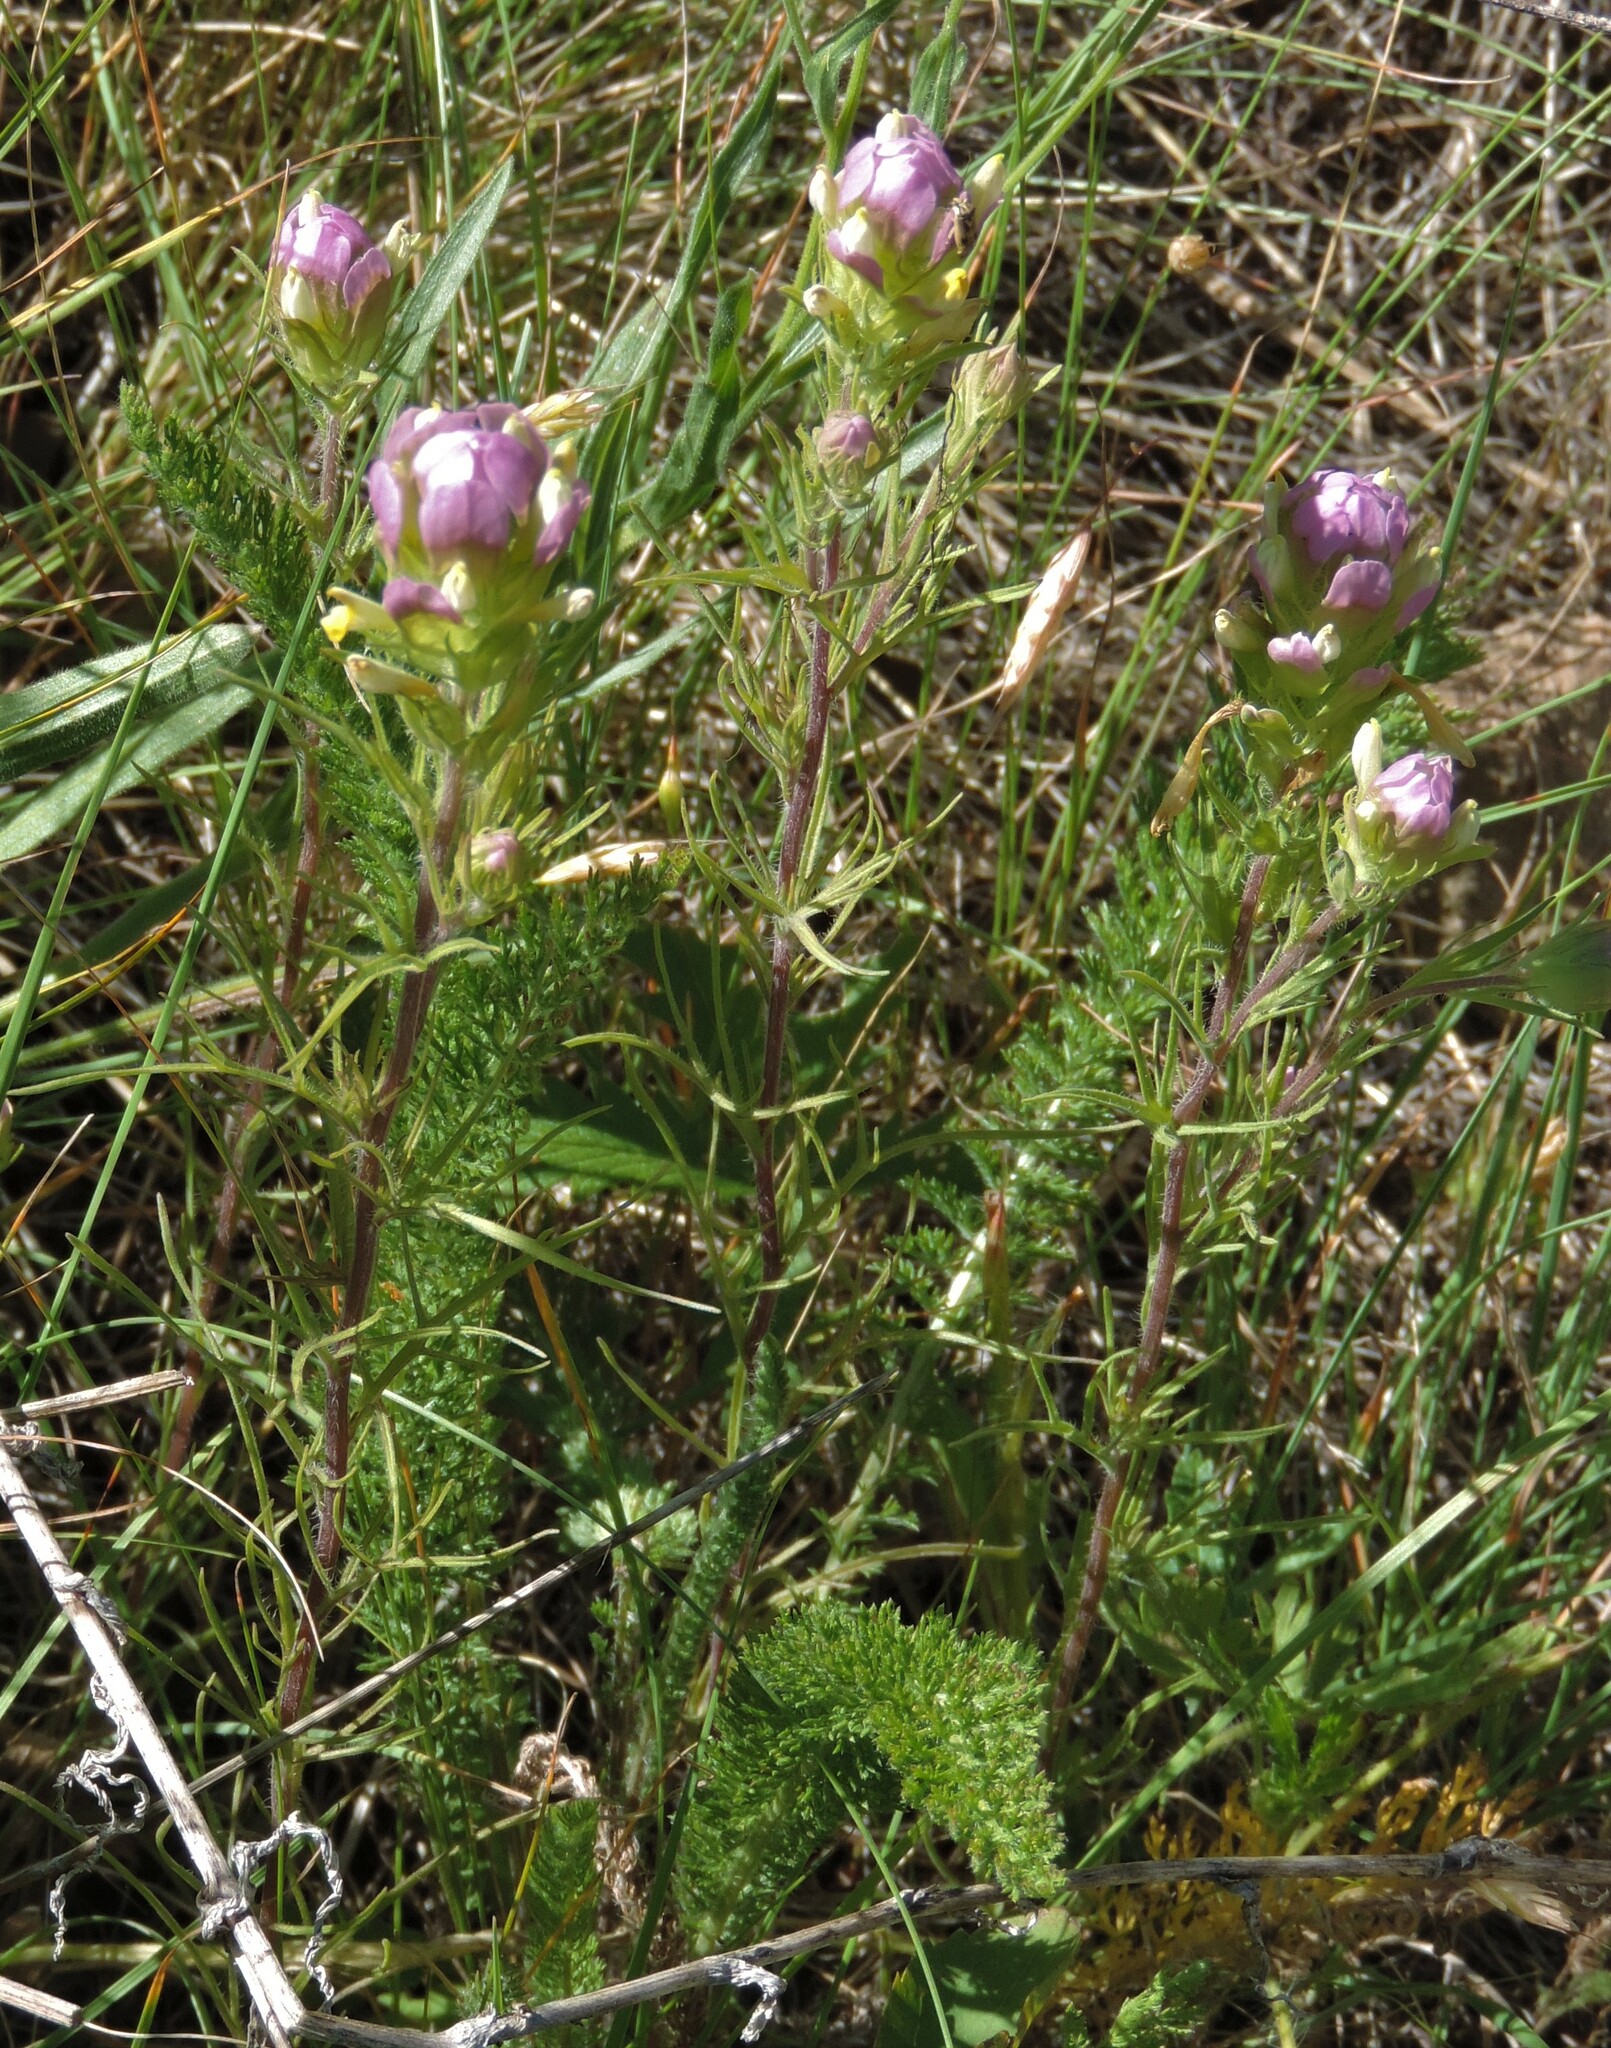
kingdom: Plantae
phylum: Tracheophyta
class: Magnoliopsida
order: Lamiales
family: Orobanchaceae
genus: Orthocarpus
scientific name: Orthocarpus tenuifolius
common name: Thin-leaved owl's-clover
